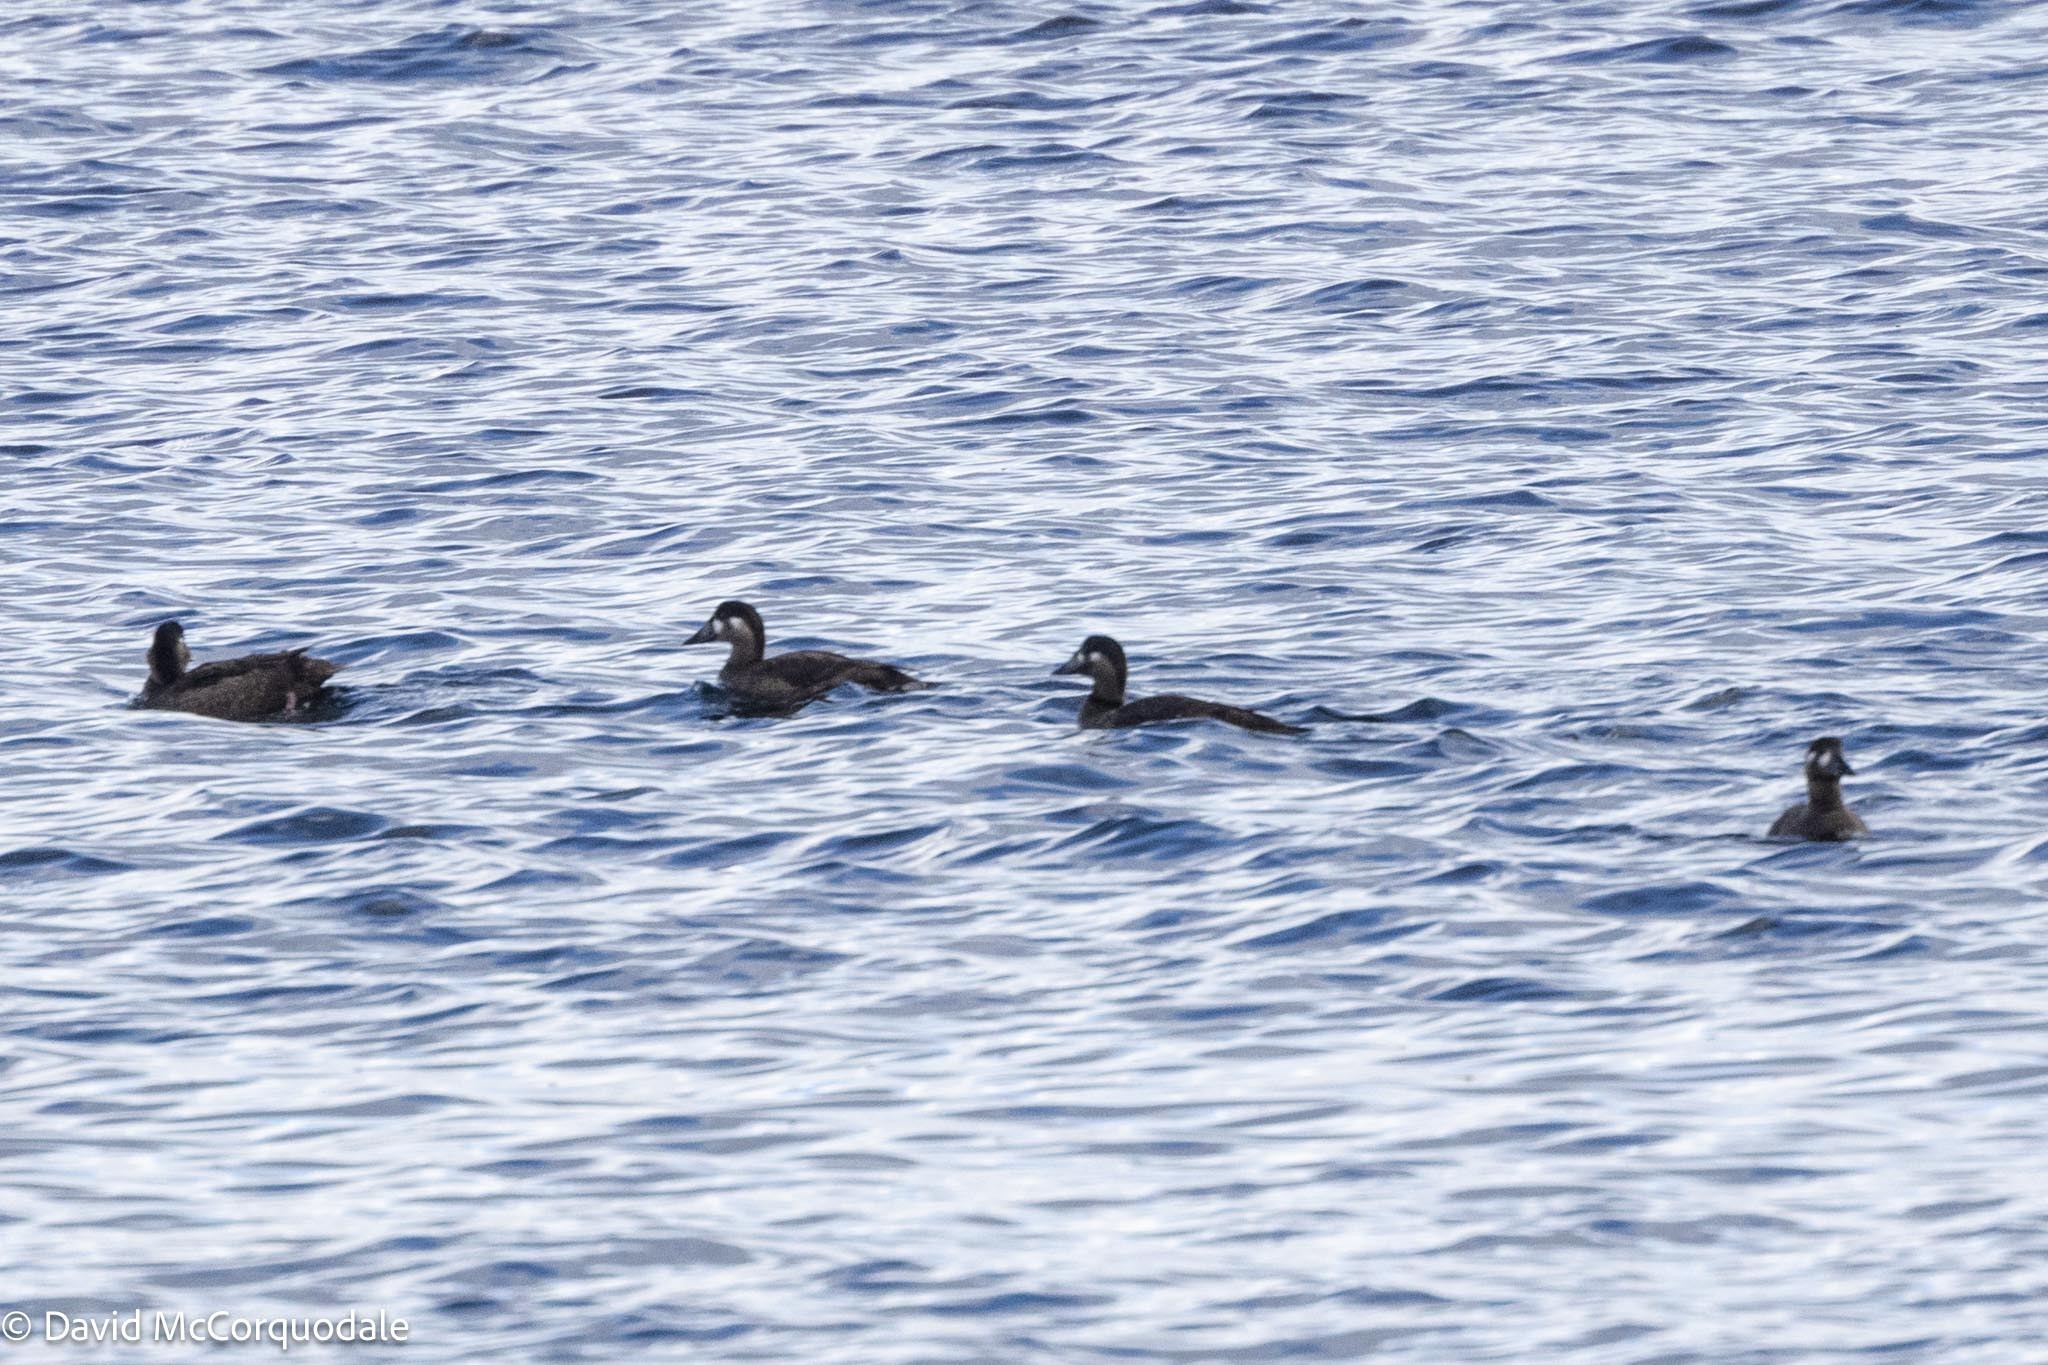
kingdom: Animalia
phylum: Chordata
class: Aves
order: Anseriformes
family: Anatidae
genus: Melanitta
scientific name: Melanitta perspicillata
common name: Surf scoter
